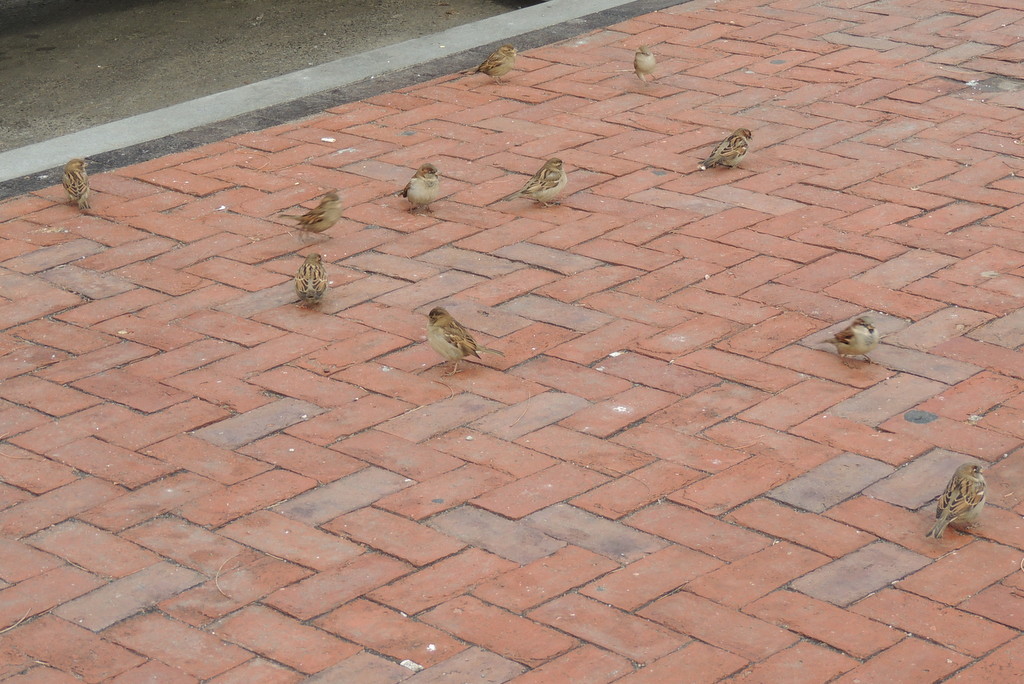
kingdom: Animalia
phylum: Chordata
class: Aves
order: Passeriformes
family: Passeridae
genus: Passer
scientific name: Passer domesticus
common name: House sparrow
